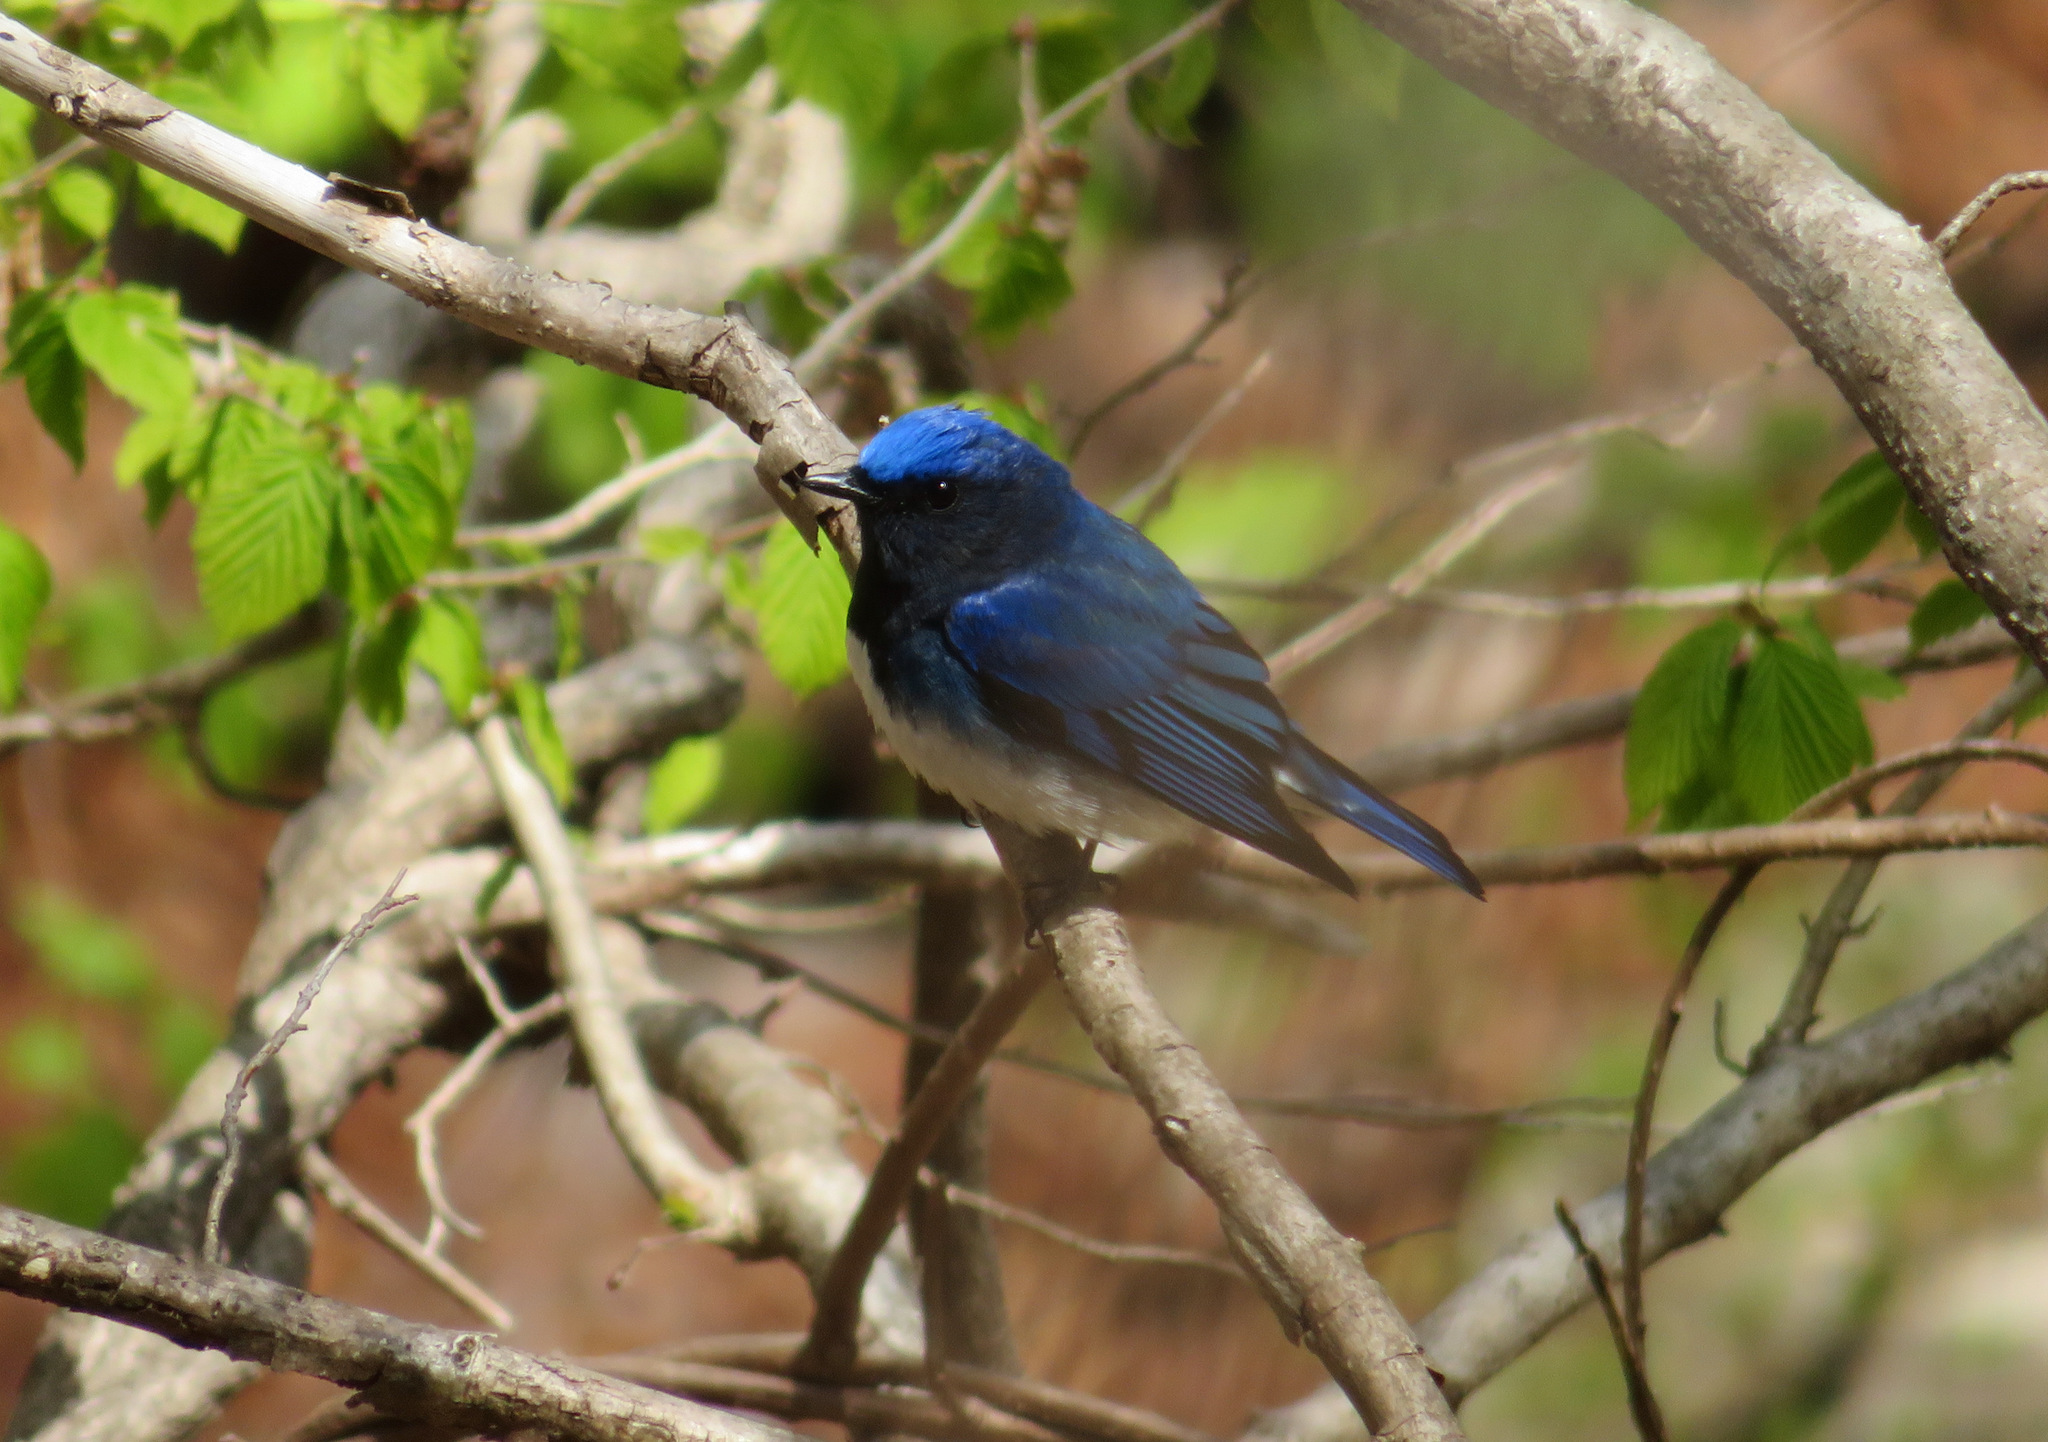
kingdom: Animalia
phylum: Chordata
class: Aves
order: Passeriformes
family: Muscicapidae
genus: Cyanoptila
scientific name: Cyanoptila cyanomelana
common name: Blue-and-white flycatcher
